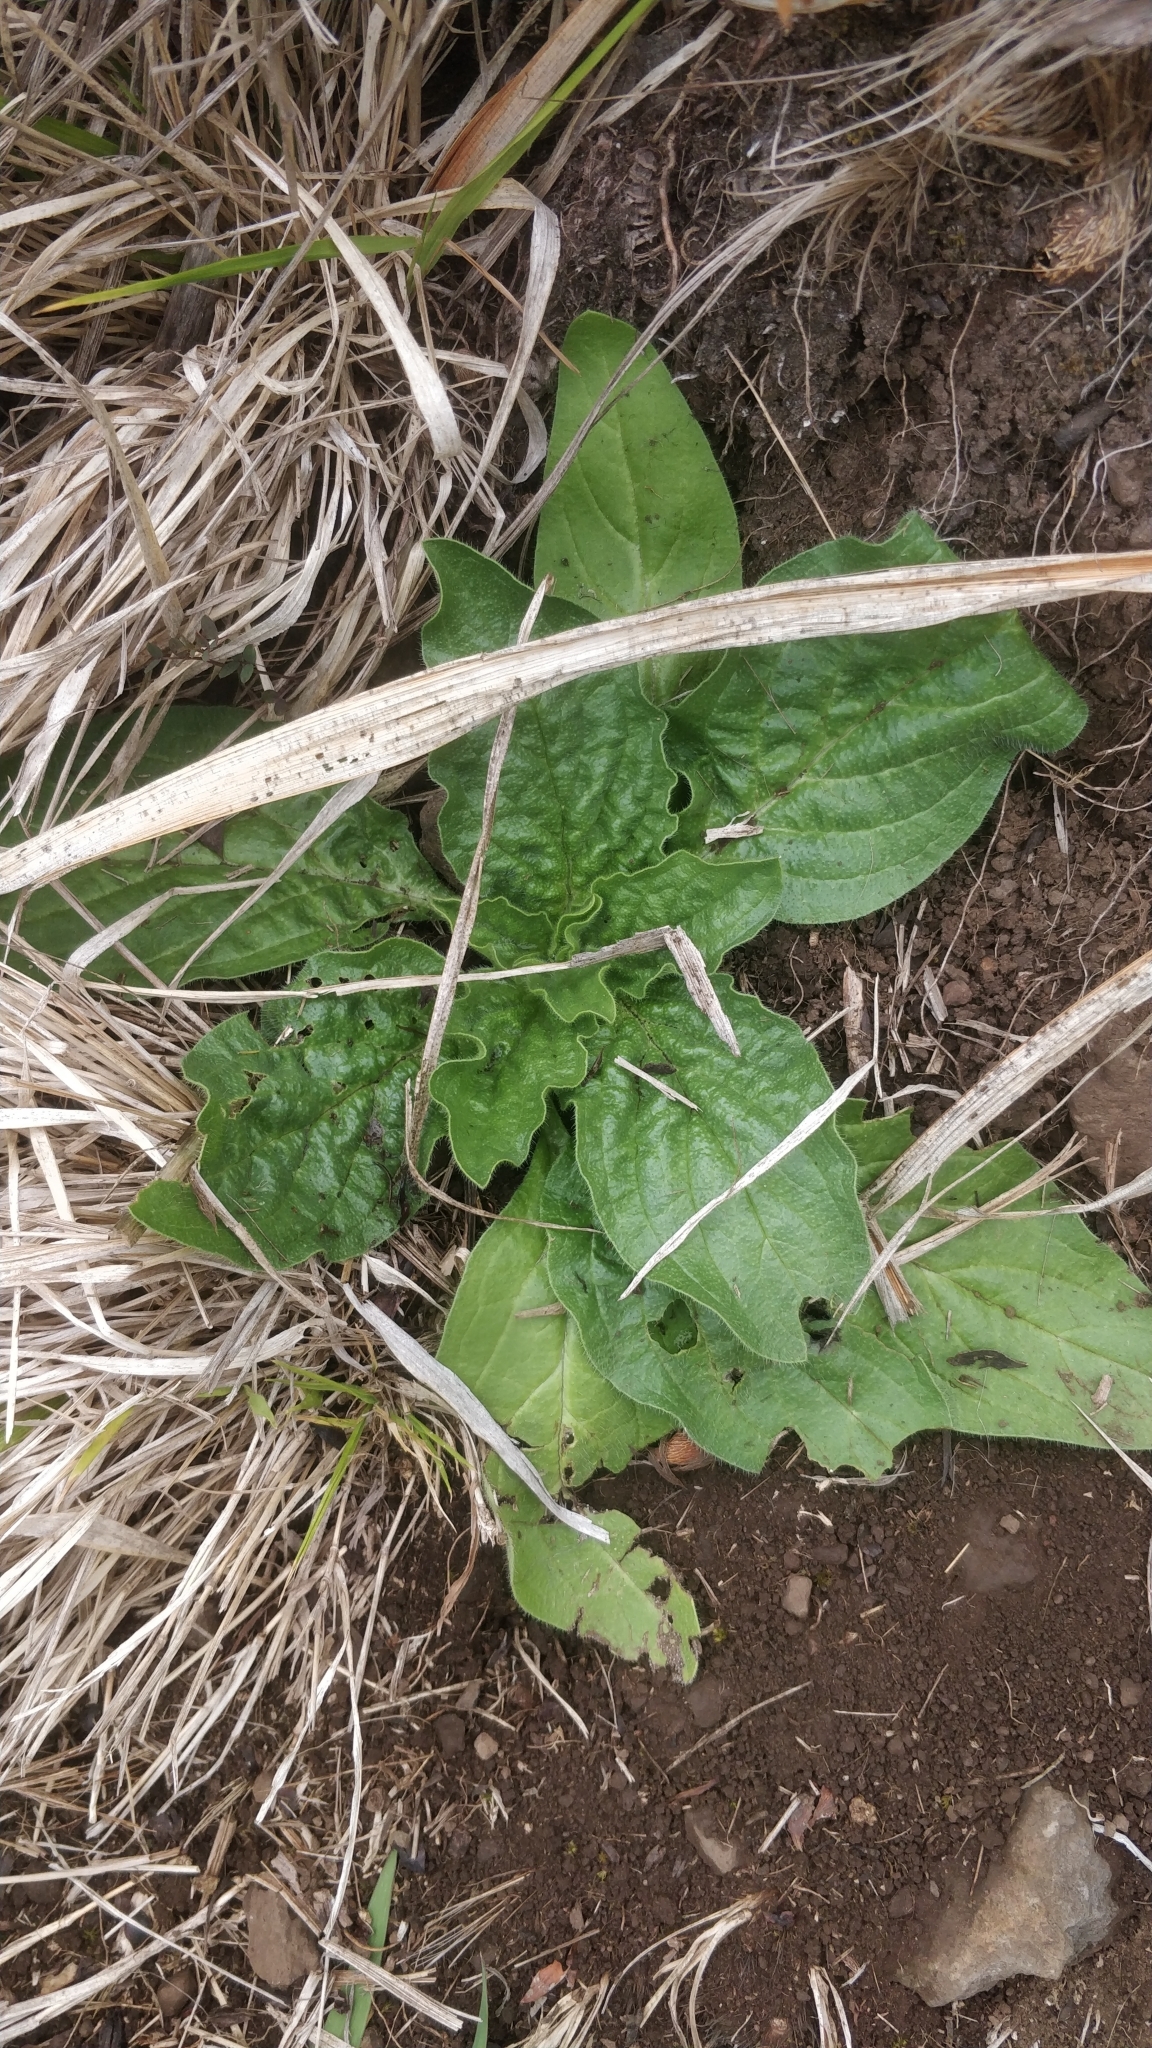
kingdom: Plantae
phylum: Tracheophyta
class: Magnoliopsida
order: Boraginales
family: Boraginaceae
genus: Echium
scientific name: Echium plantagineum
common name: Purple viper's-bugloss
